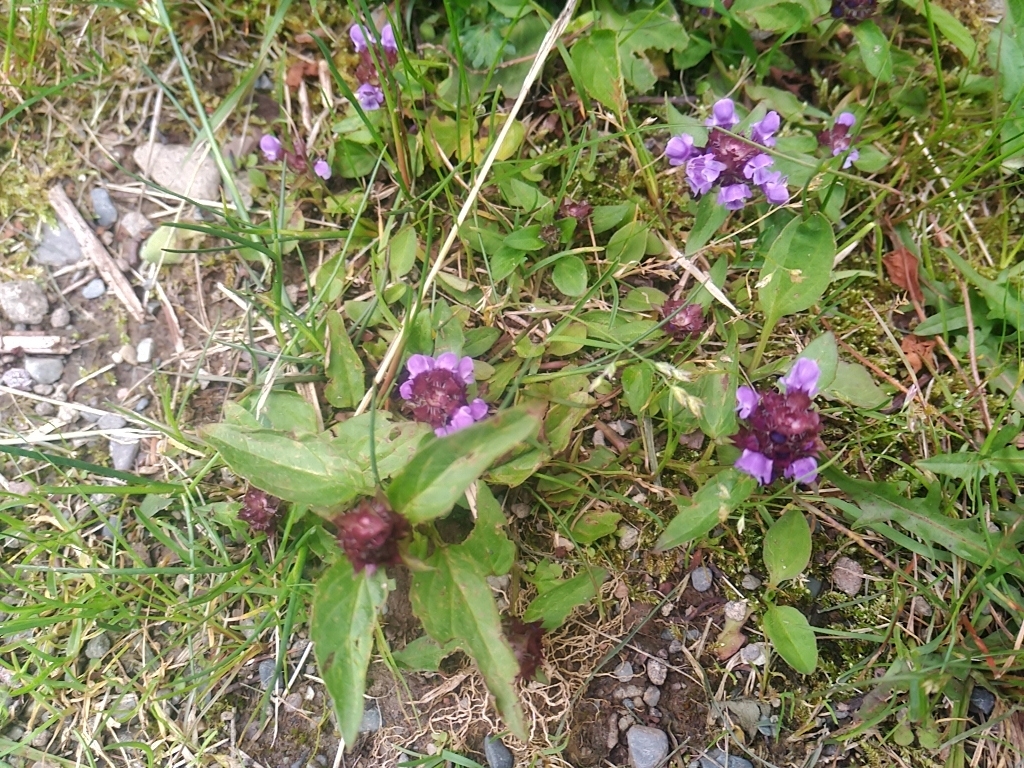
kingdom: Plantae
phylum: Tracheophyta
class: Magnoliopsida
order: Lamiales
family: Lamiaceae
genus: Prunella
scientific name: Prunella vulgaris
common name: Heal-all
